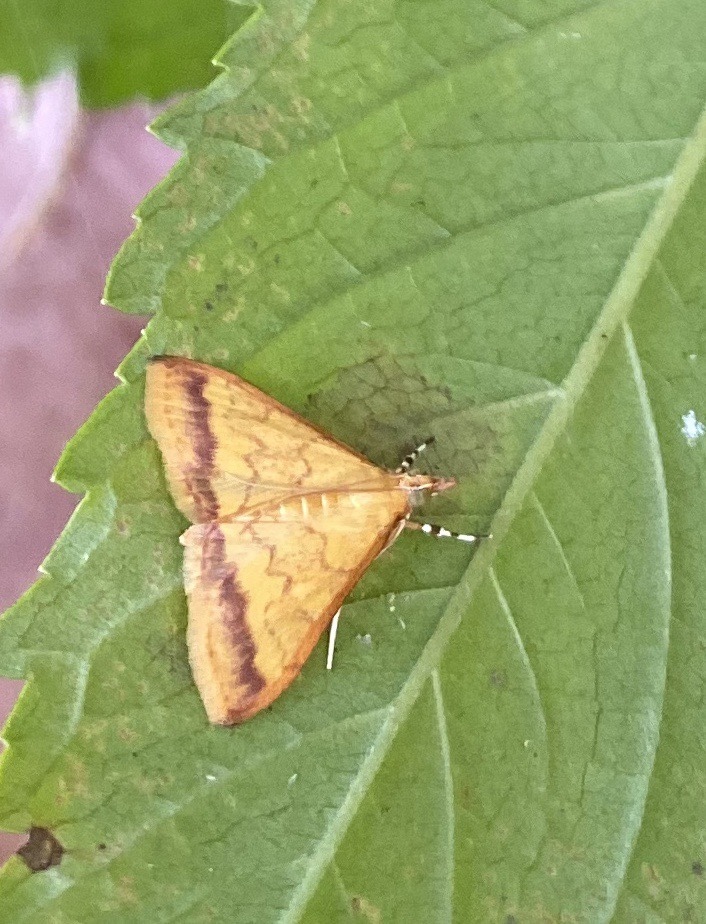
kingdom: Animalia
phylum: Arthropoda
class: Insecta
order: Lepidoptera
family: Crambidae
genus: Pyrausta
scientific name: Pyrausta insignitalis
